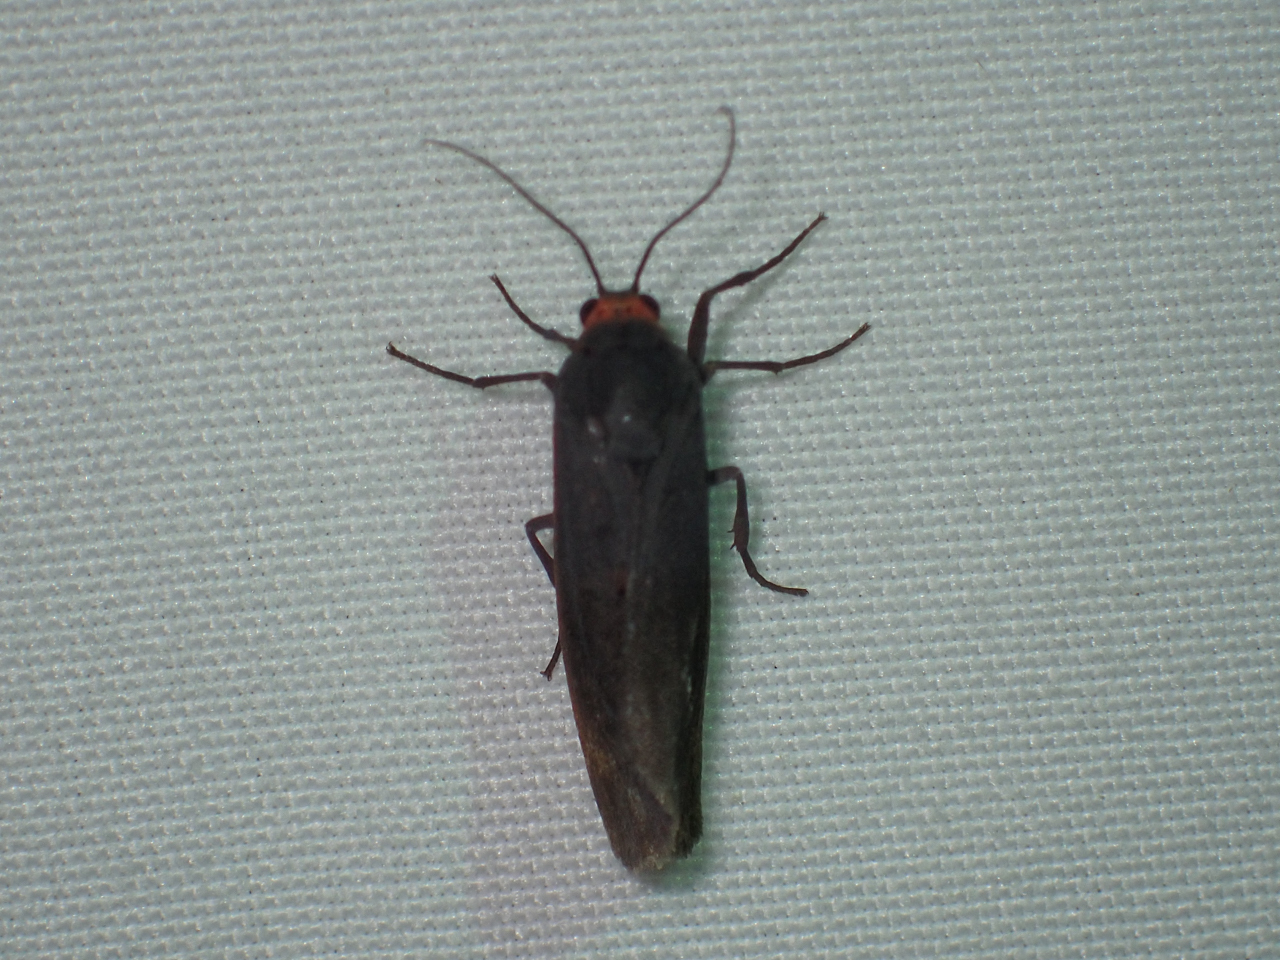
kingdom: Animalia
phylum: Arthropoda
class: Insecta
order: Lepidoptera
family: Erebidae
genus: Virbia
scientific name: Virbia laeta
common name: Joyful holomelina moth
